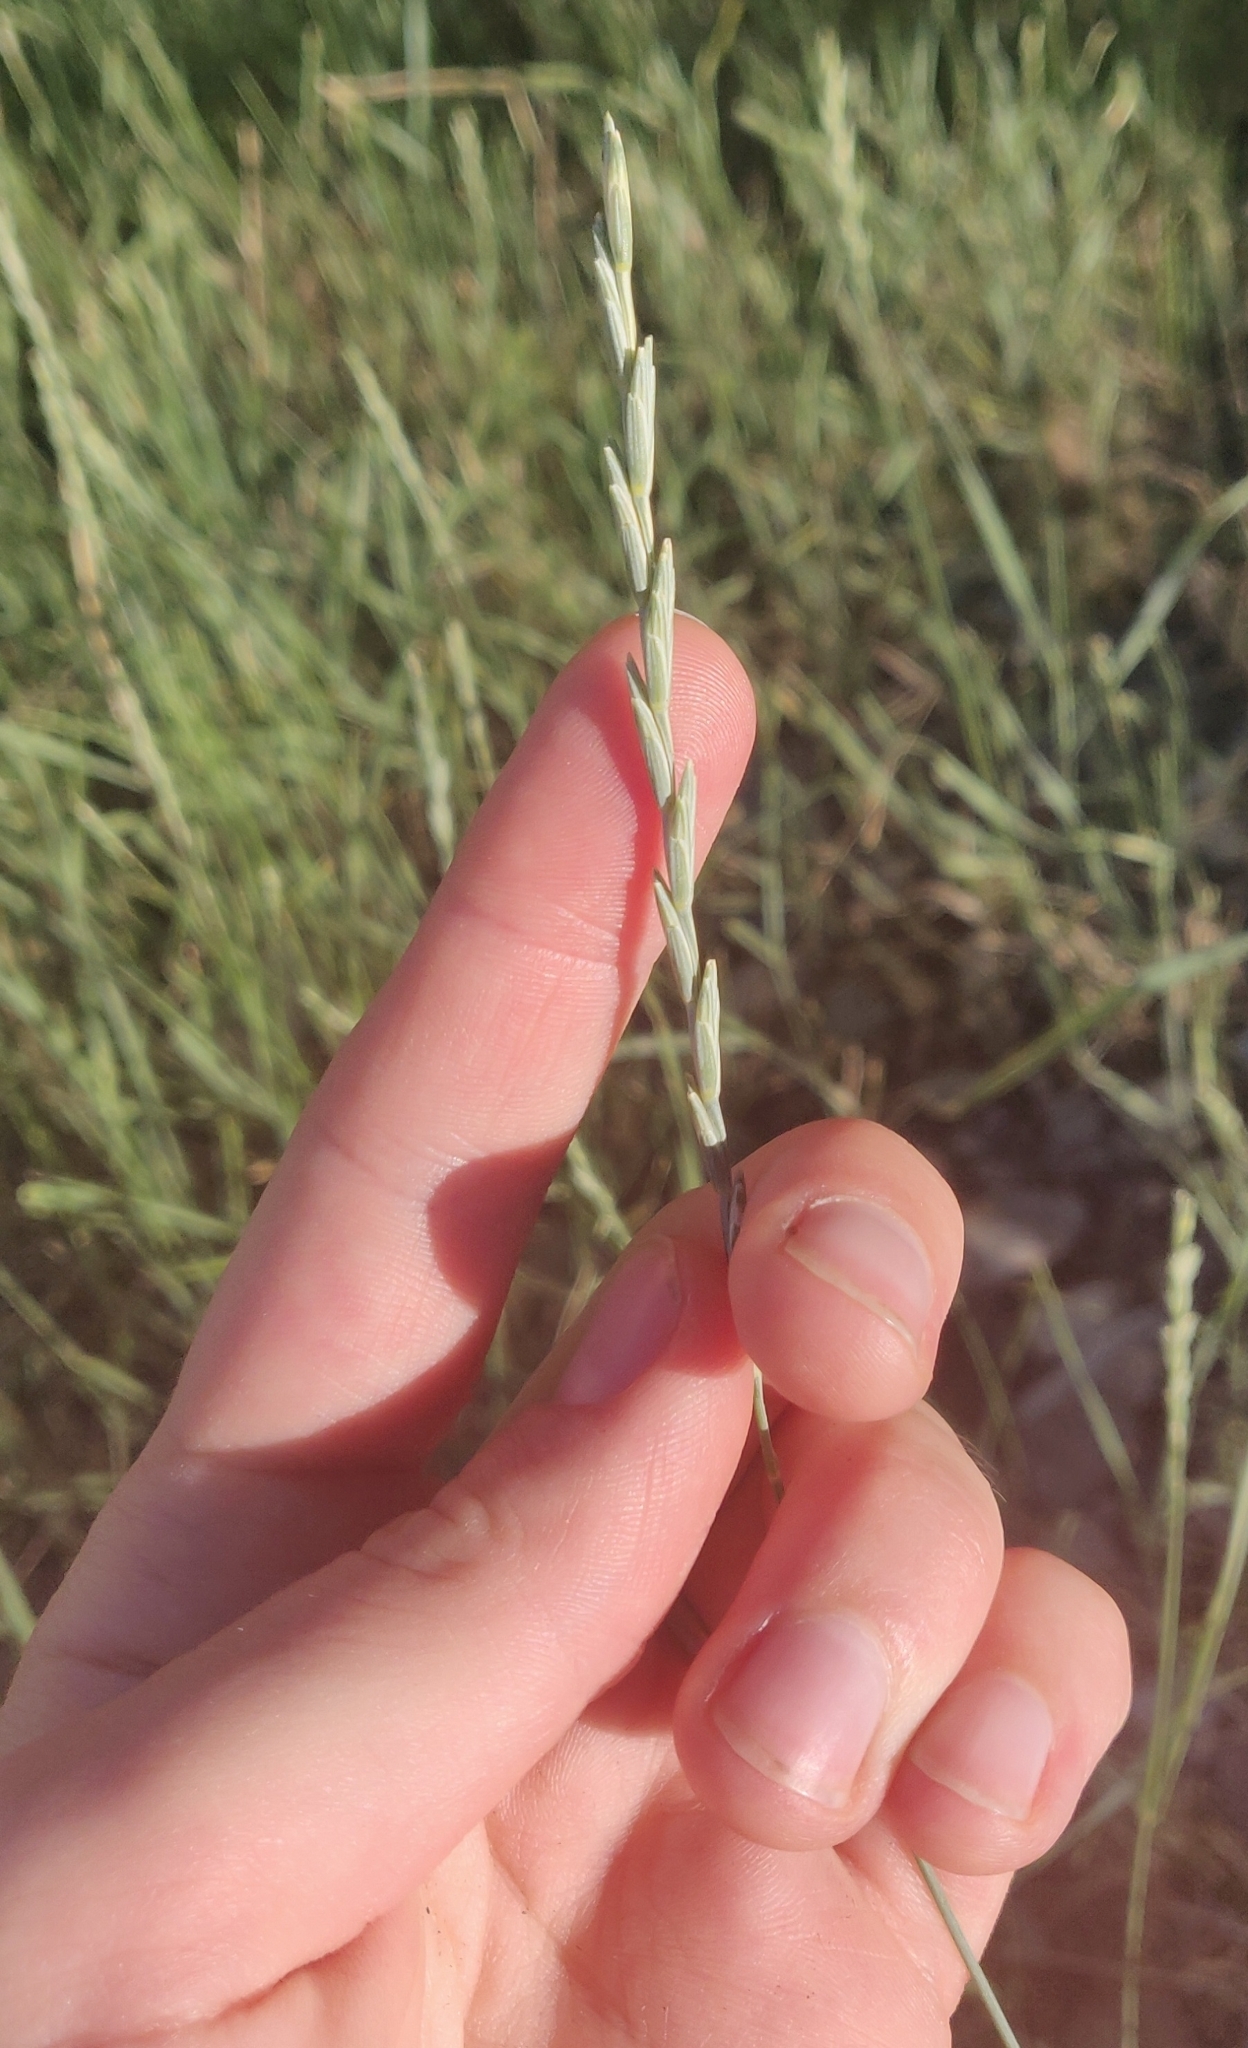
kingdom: Plantae
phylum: Tracheophyta
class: Liliopsida
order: Poales
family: Poaceae
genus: Thinopyrum
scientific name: Thinopyrum intermedium
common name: Intermediate wheatgrass
